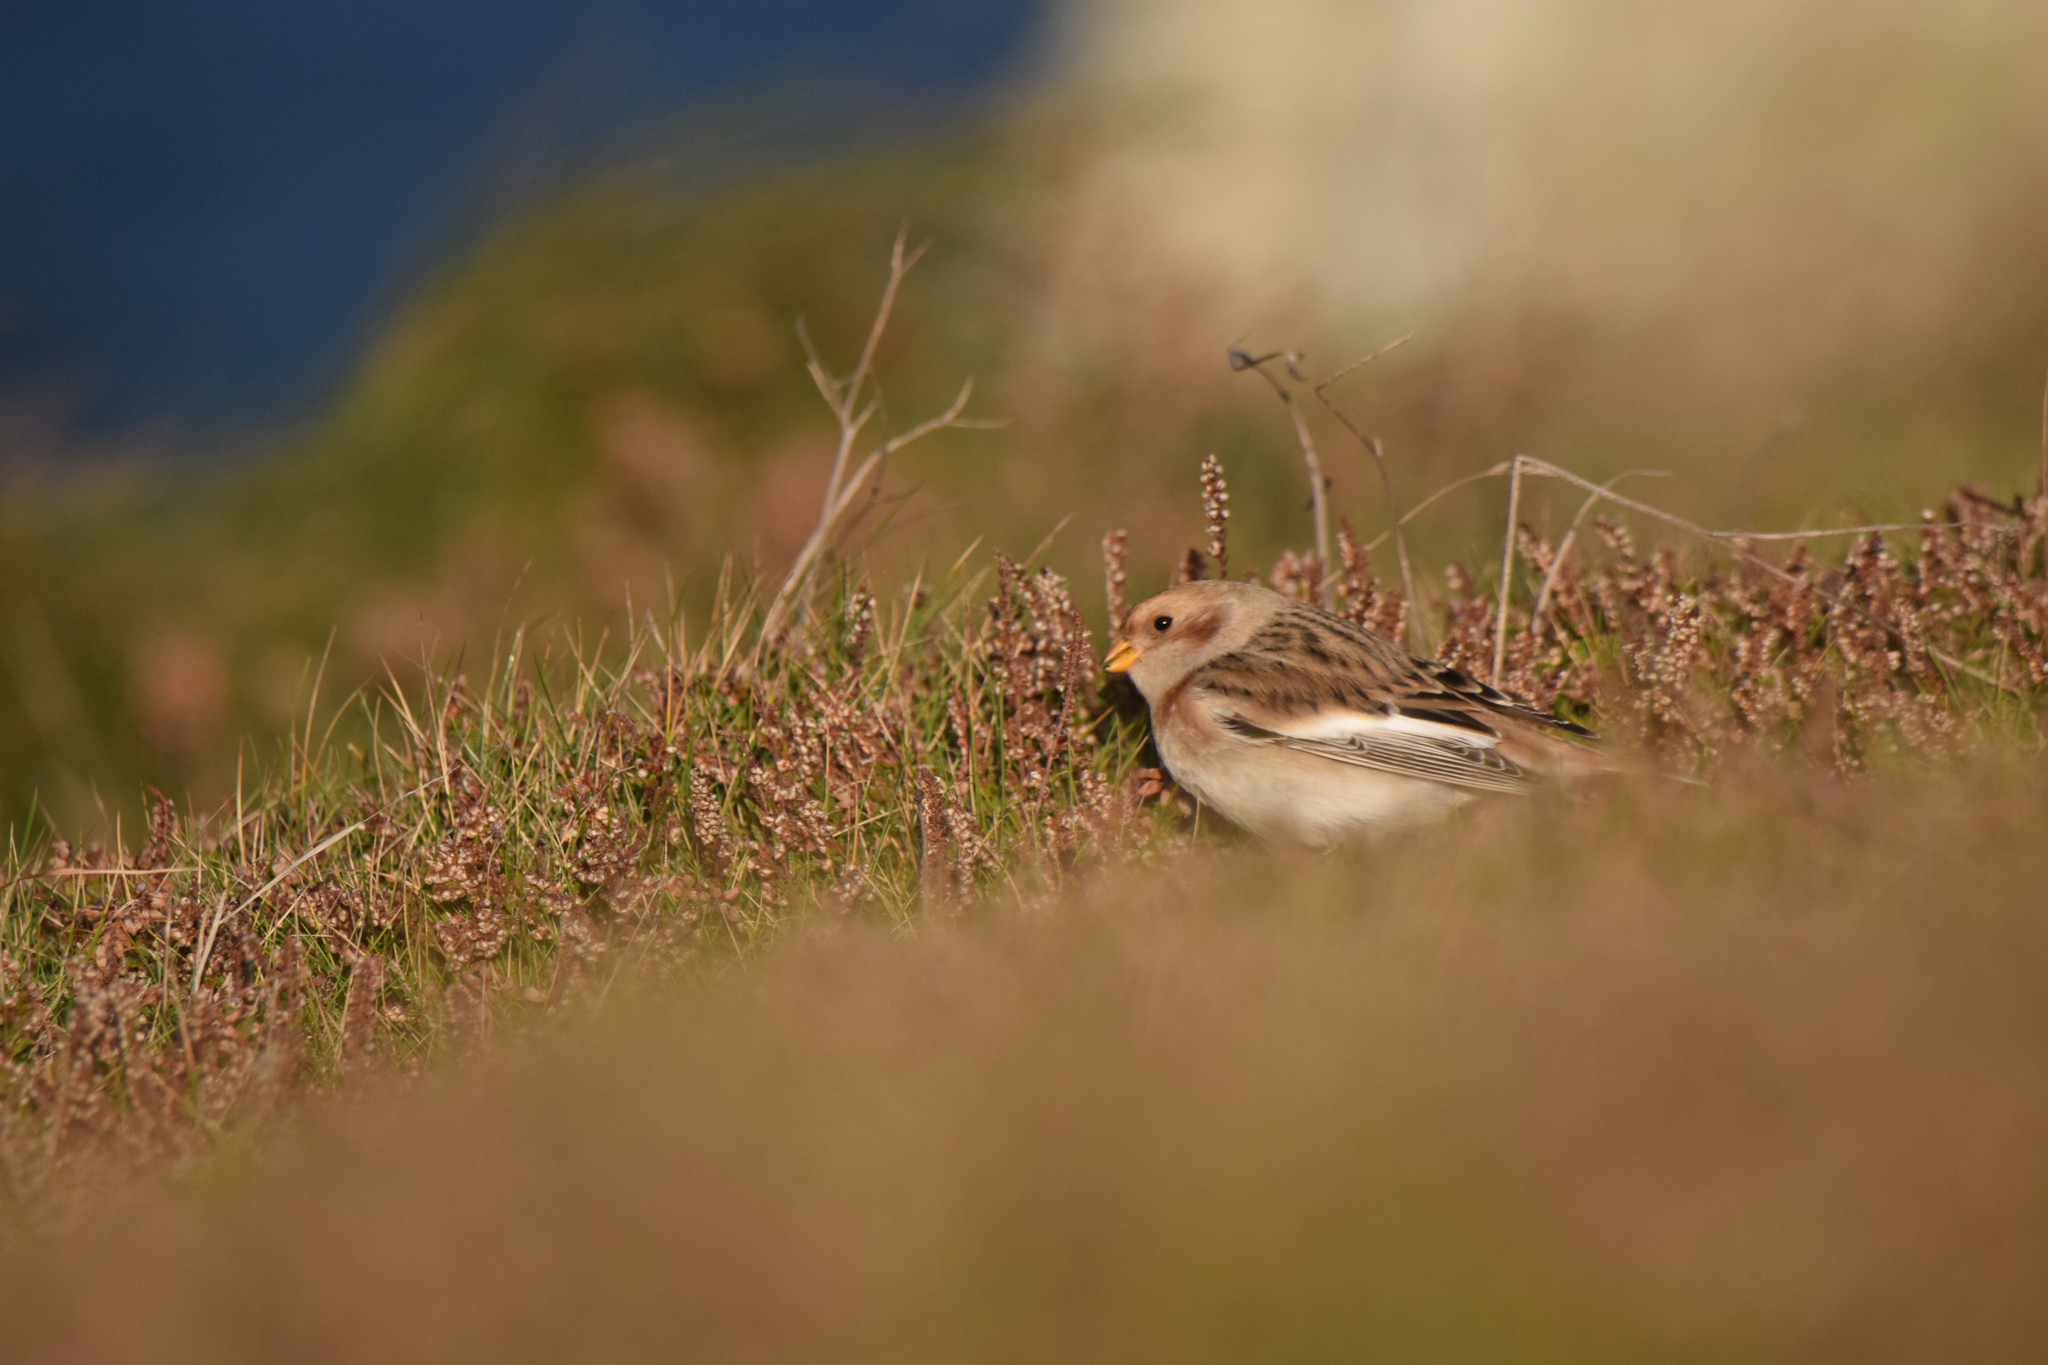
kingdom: Animalia
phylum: Chordata
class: Aves
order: Passeriformes
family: Calcariidae
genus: Plectrophenax
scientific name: Plectrophenax nivalis
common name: Snow bunting
